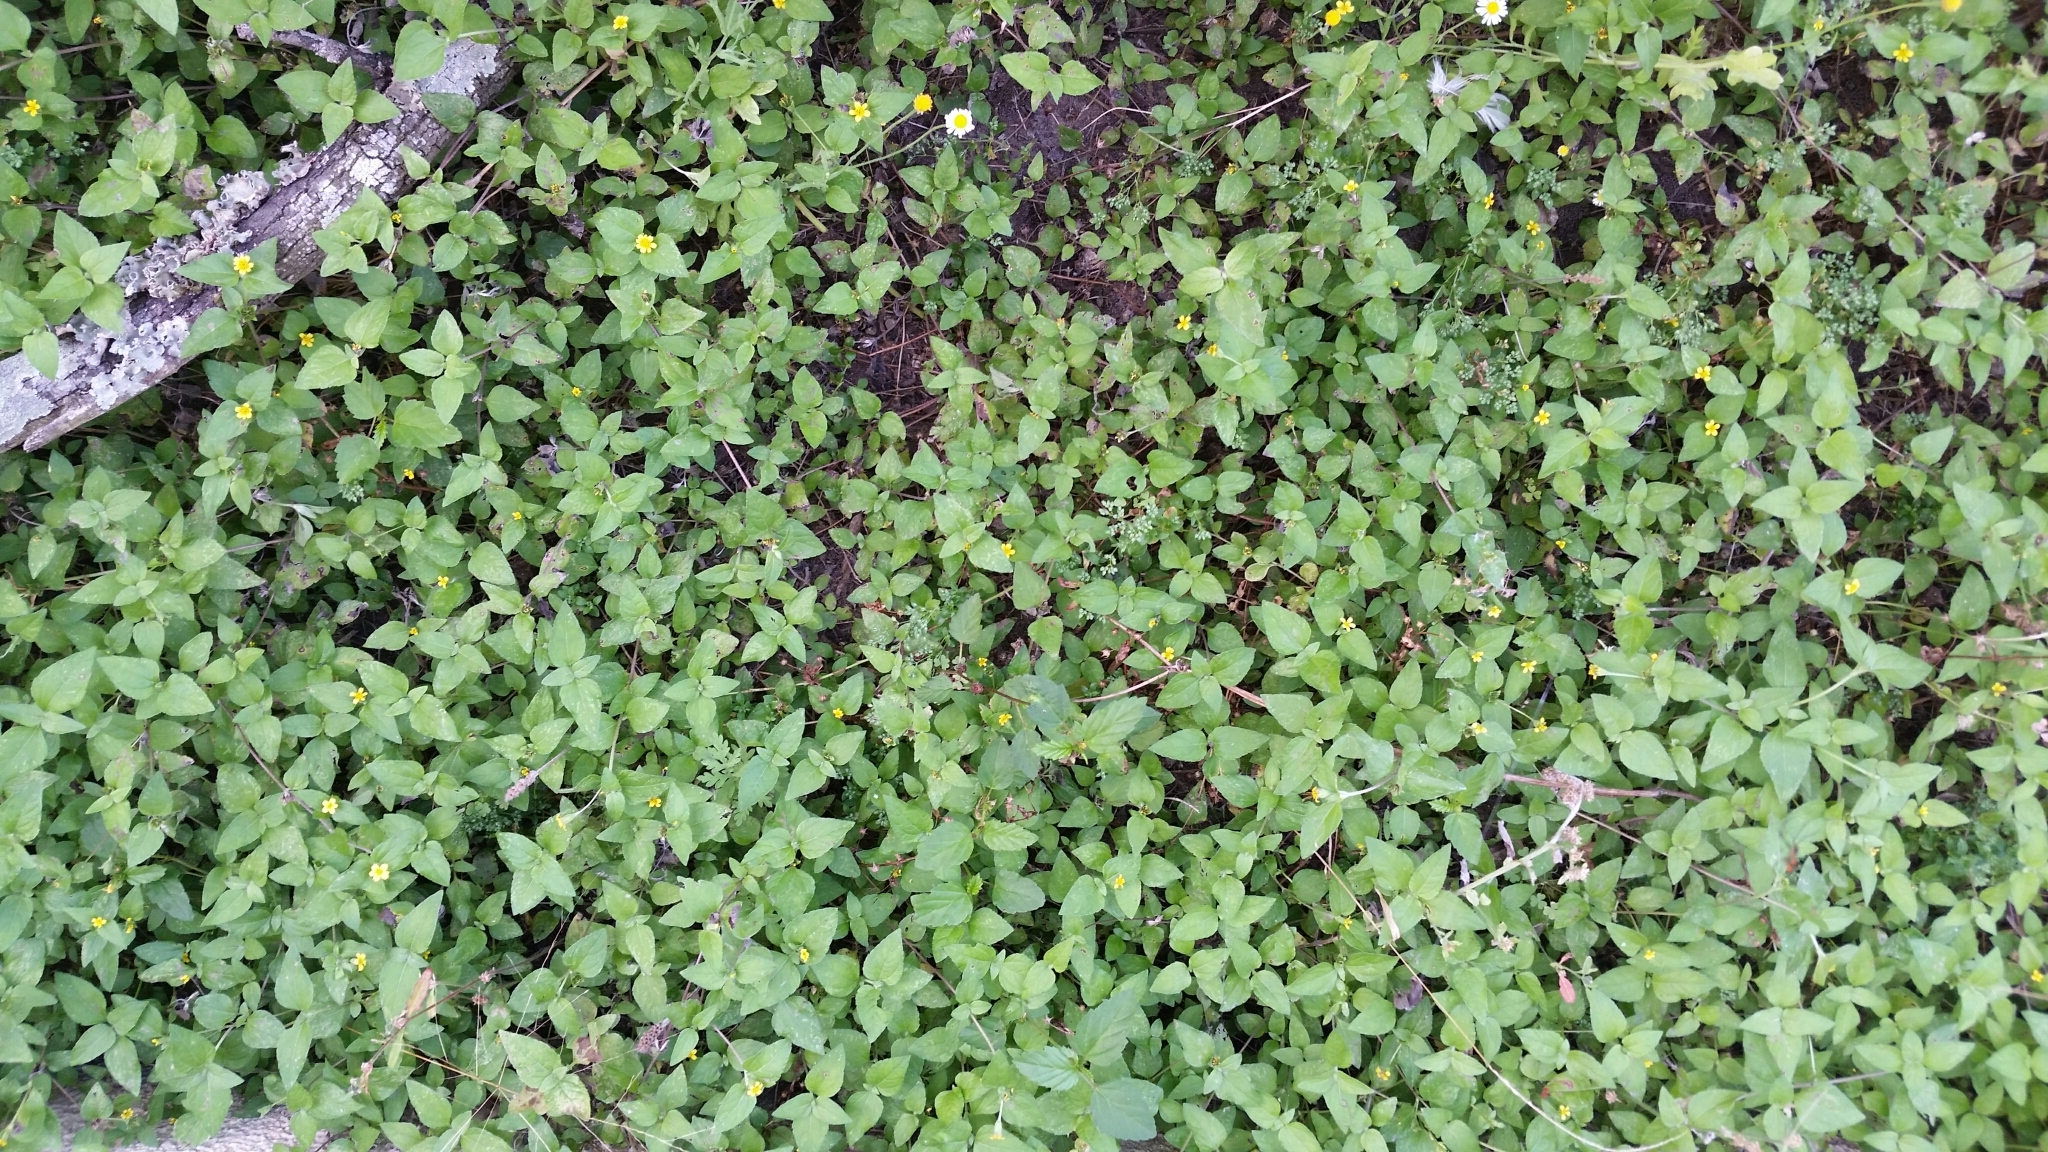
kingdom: Plantae
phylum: Tracheophyta
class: Magnoliopsida
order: Asterales
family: Asteraceae
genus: Calyptocarpus
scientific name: Calyptocarpus vialis
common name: Straggler daisy
